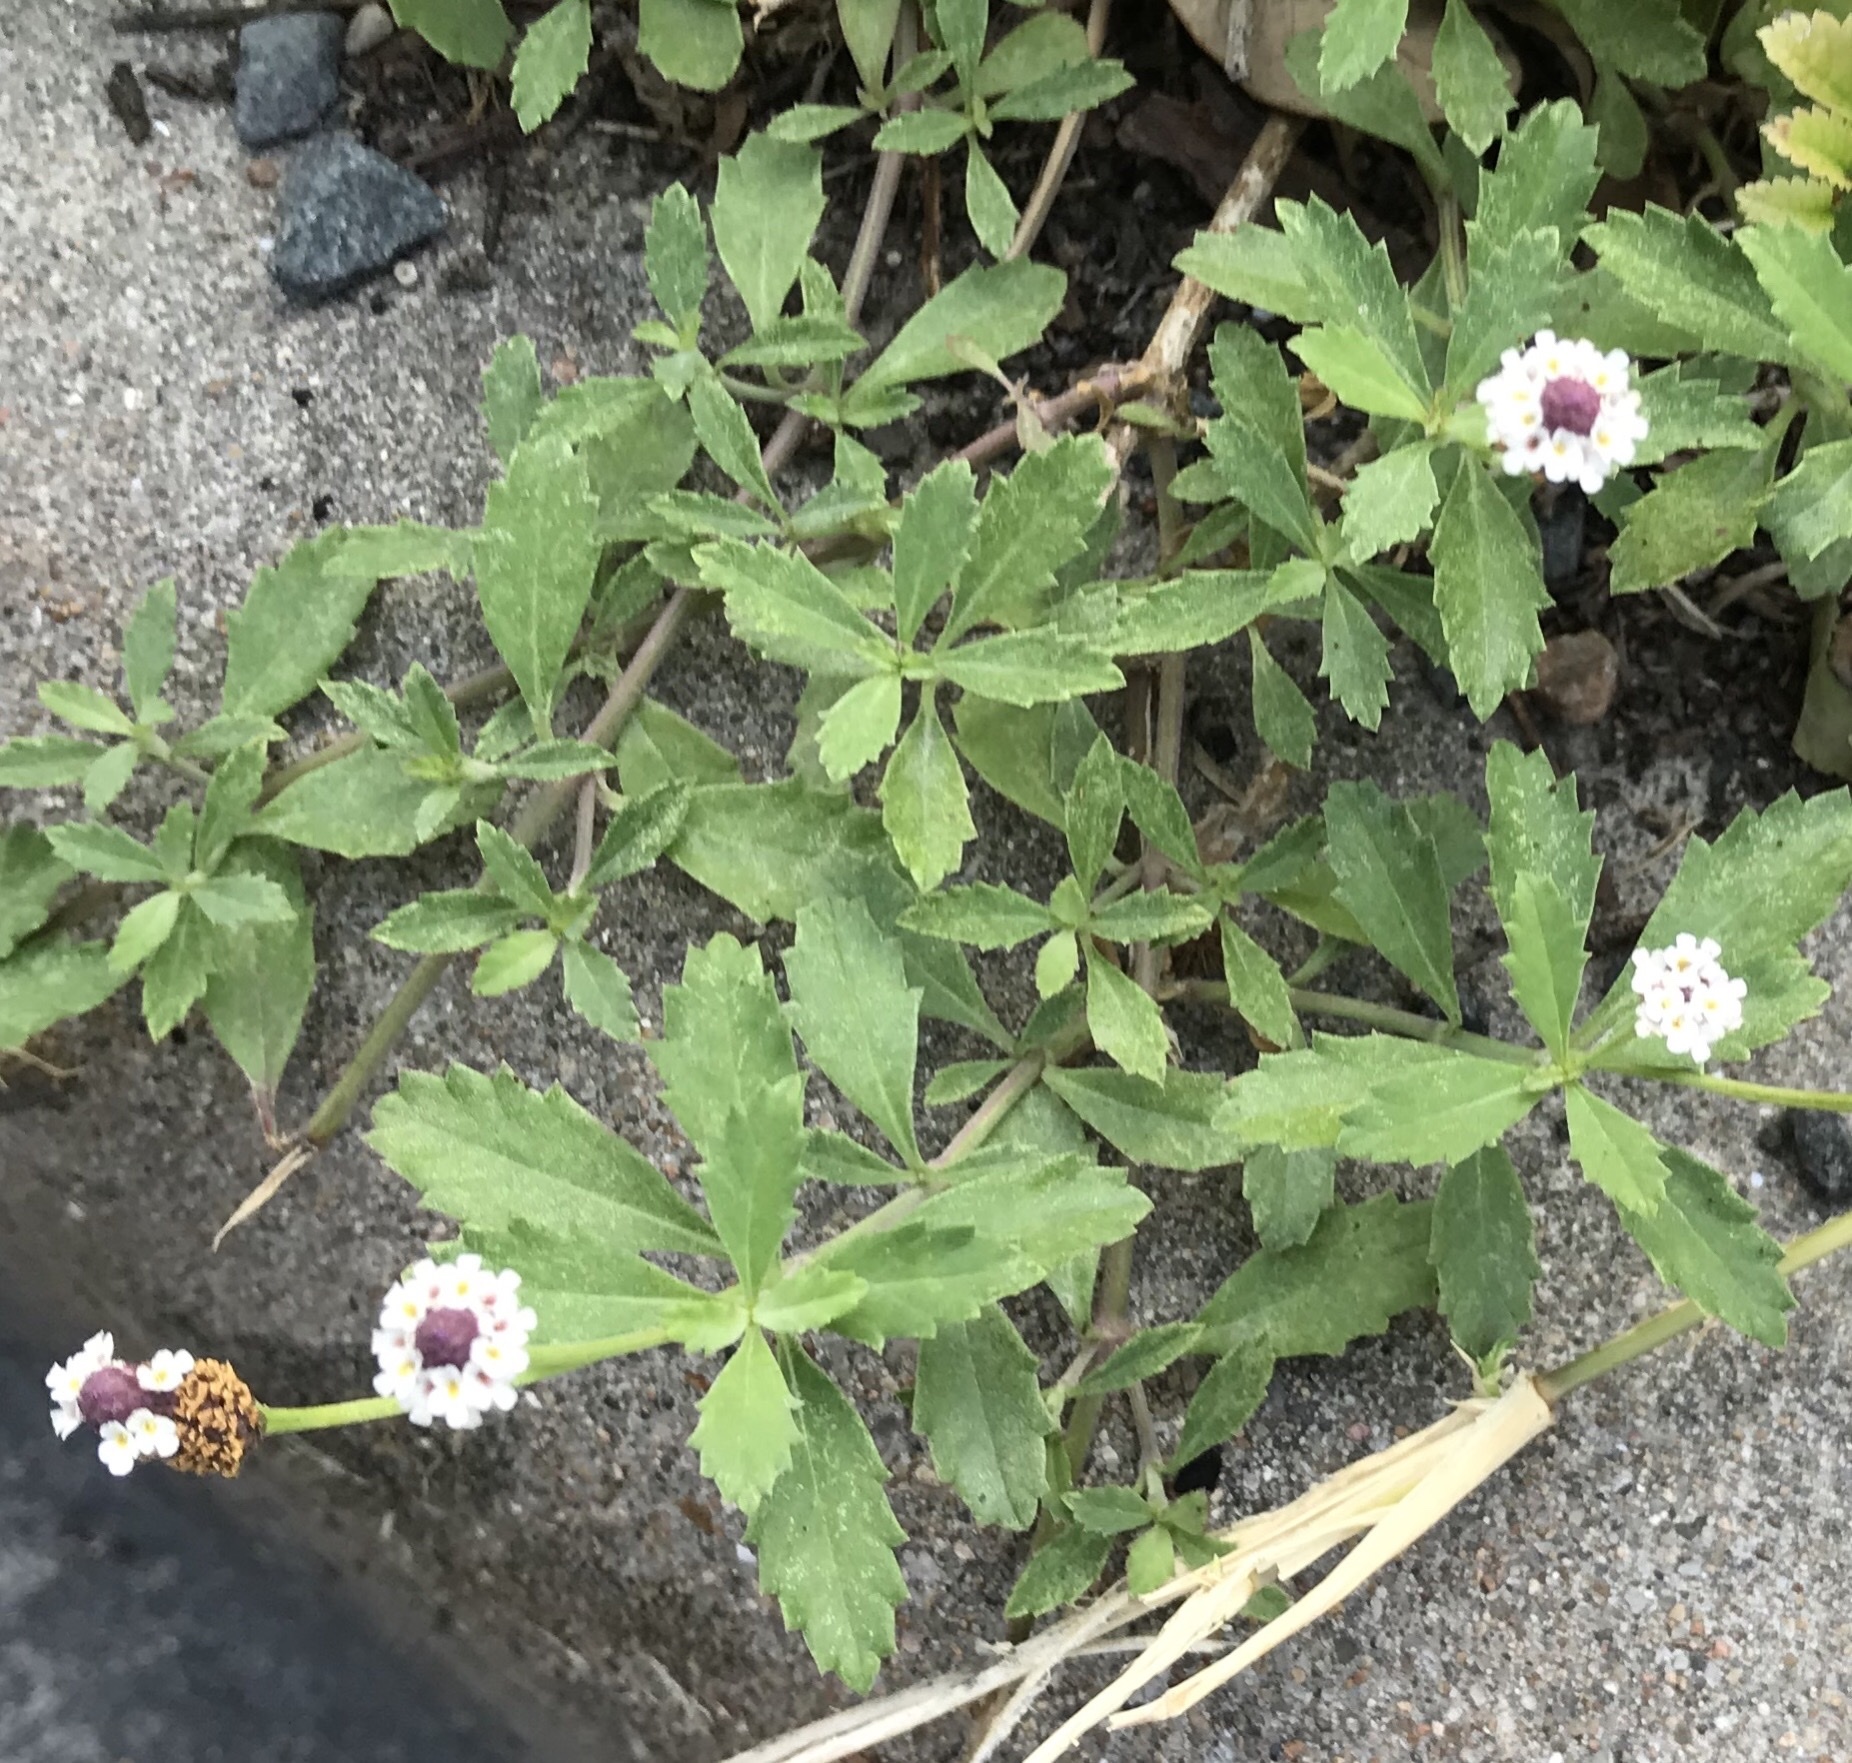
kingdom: Plantae
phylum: Tracheophyta
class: Magnoliopsida
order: Lamiales
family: Verbenaceae
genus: Phyla
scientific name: Phyla nodiflora
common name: Frogfruit
